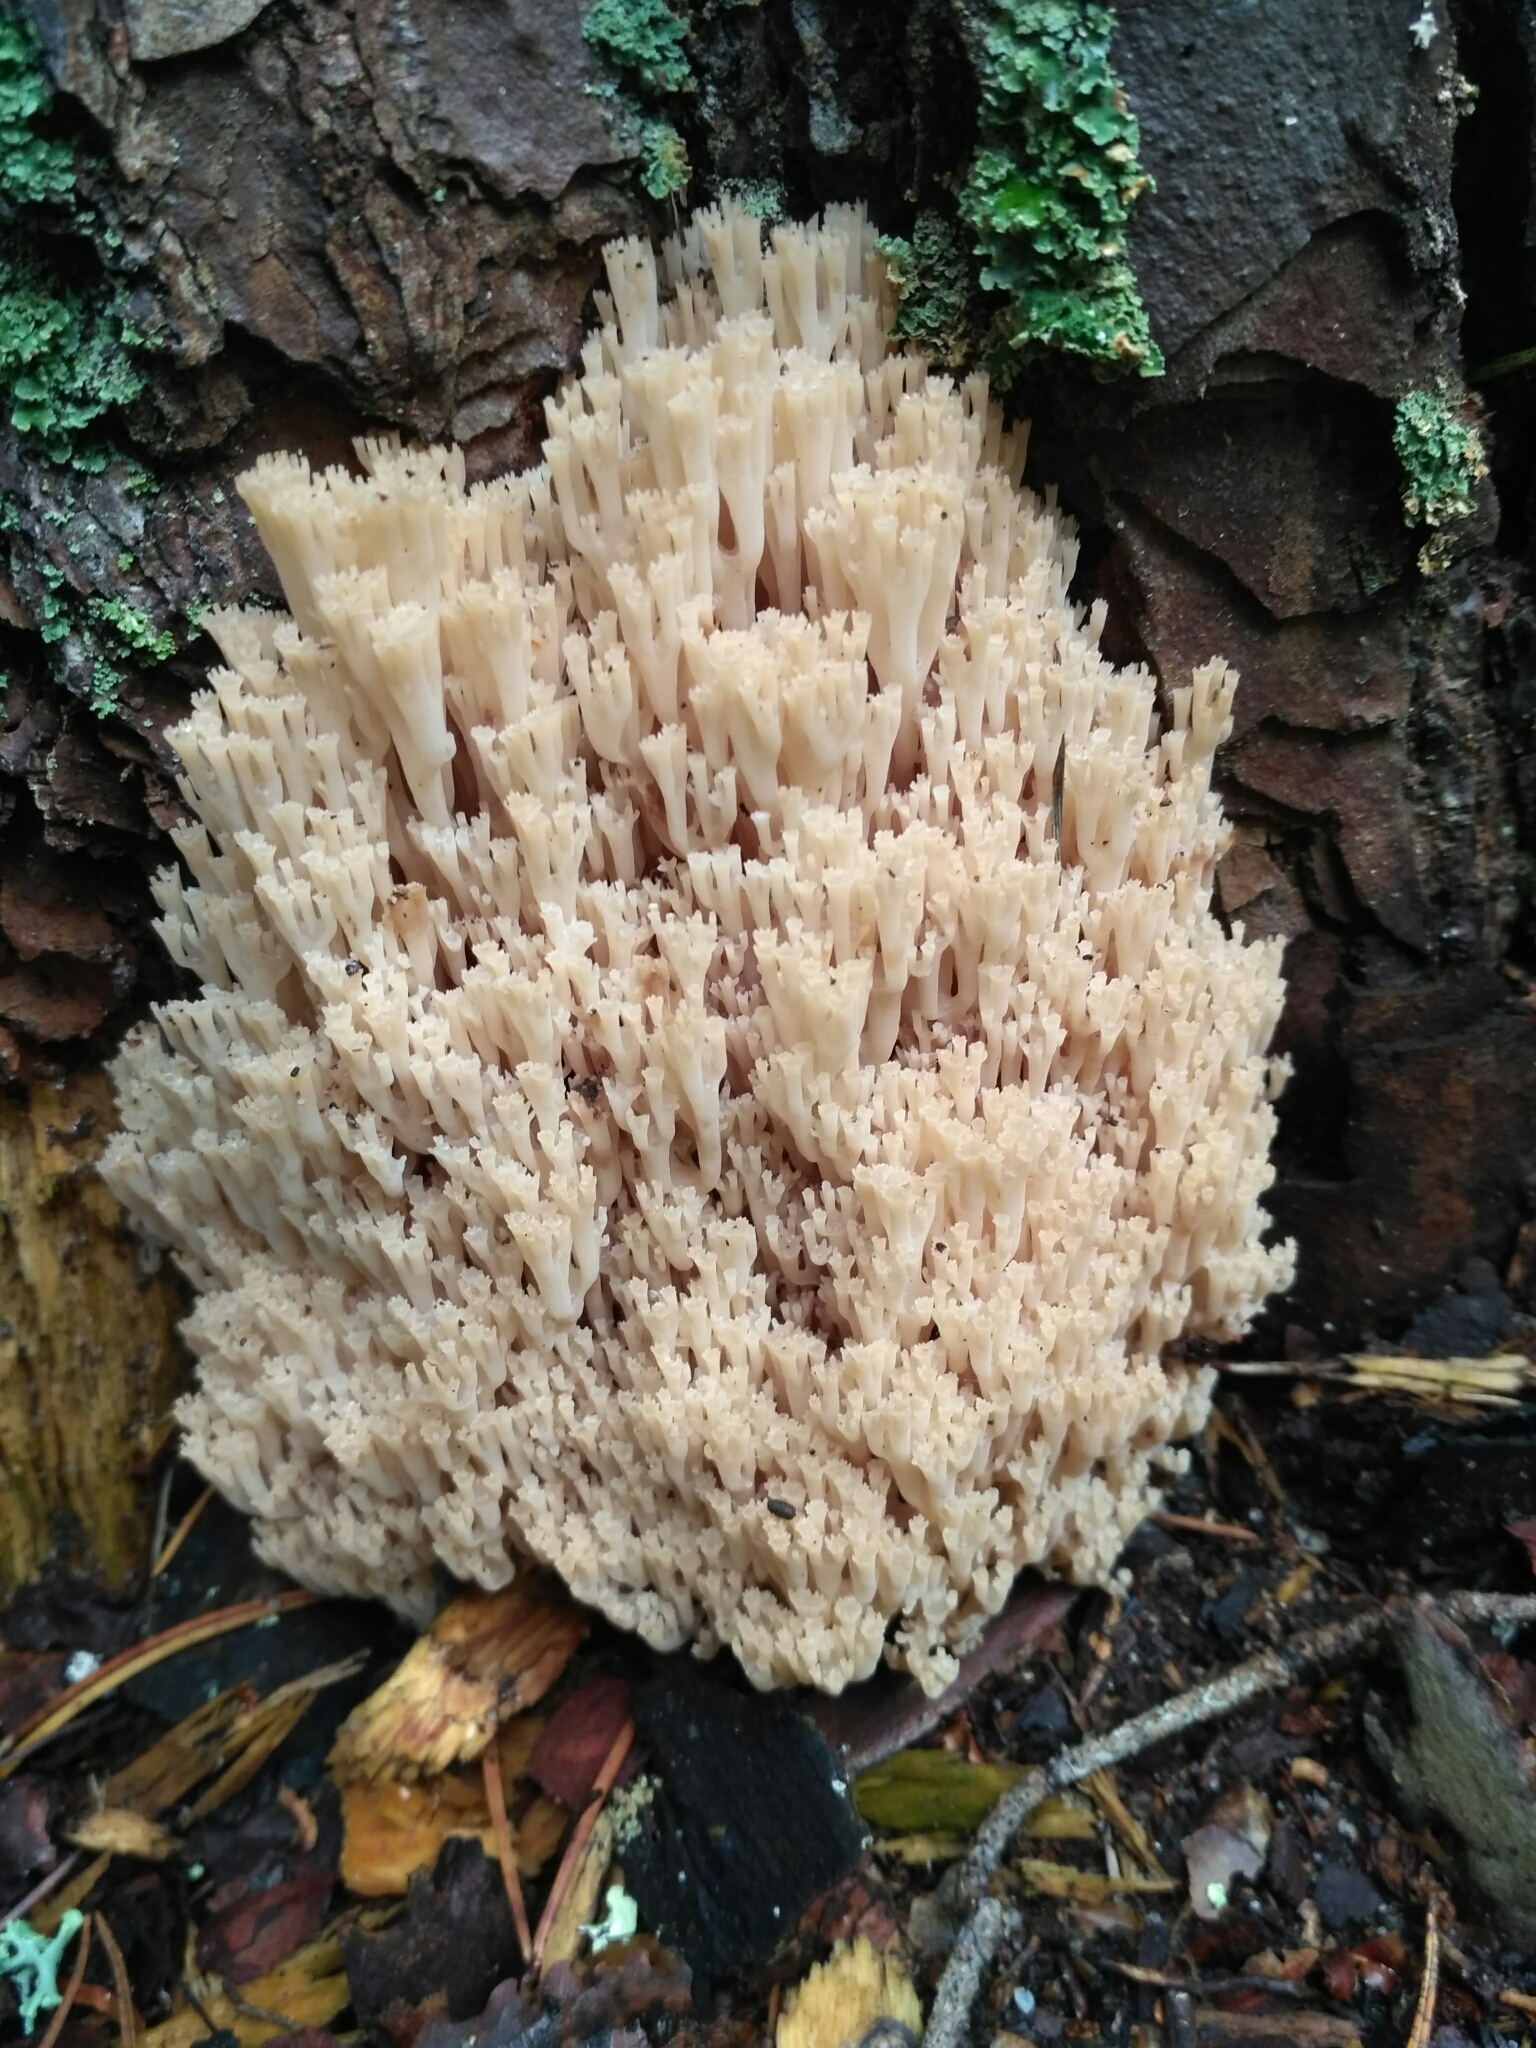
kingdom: Fungi
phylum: Basidiomycota
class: Agaricomycetes
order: Russulales
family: Auriscalpiaceae
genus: Artomyces
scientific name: Artomyces pyxidatus
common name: Crown-tipped coral fungus
